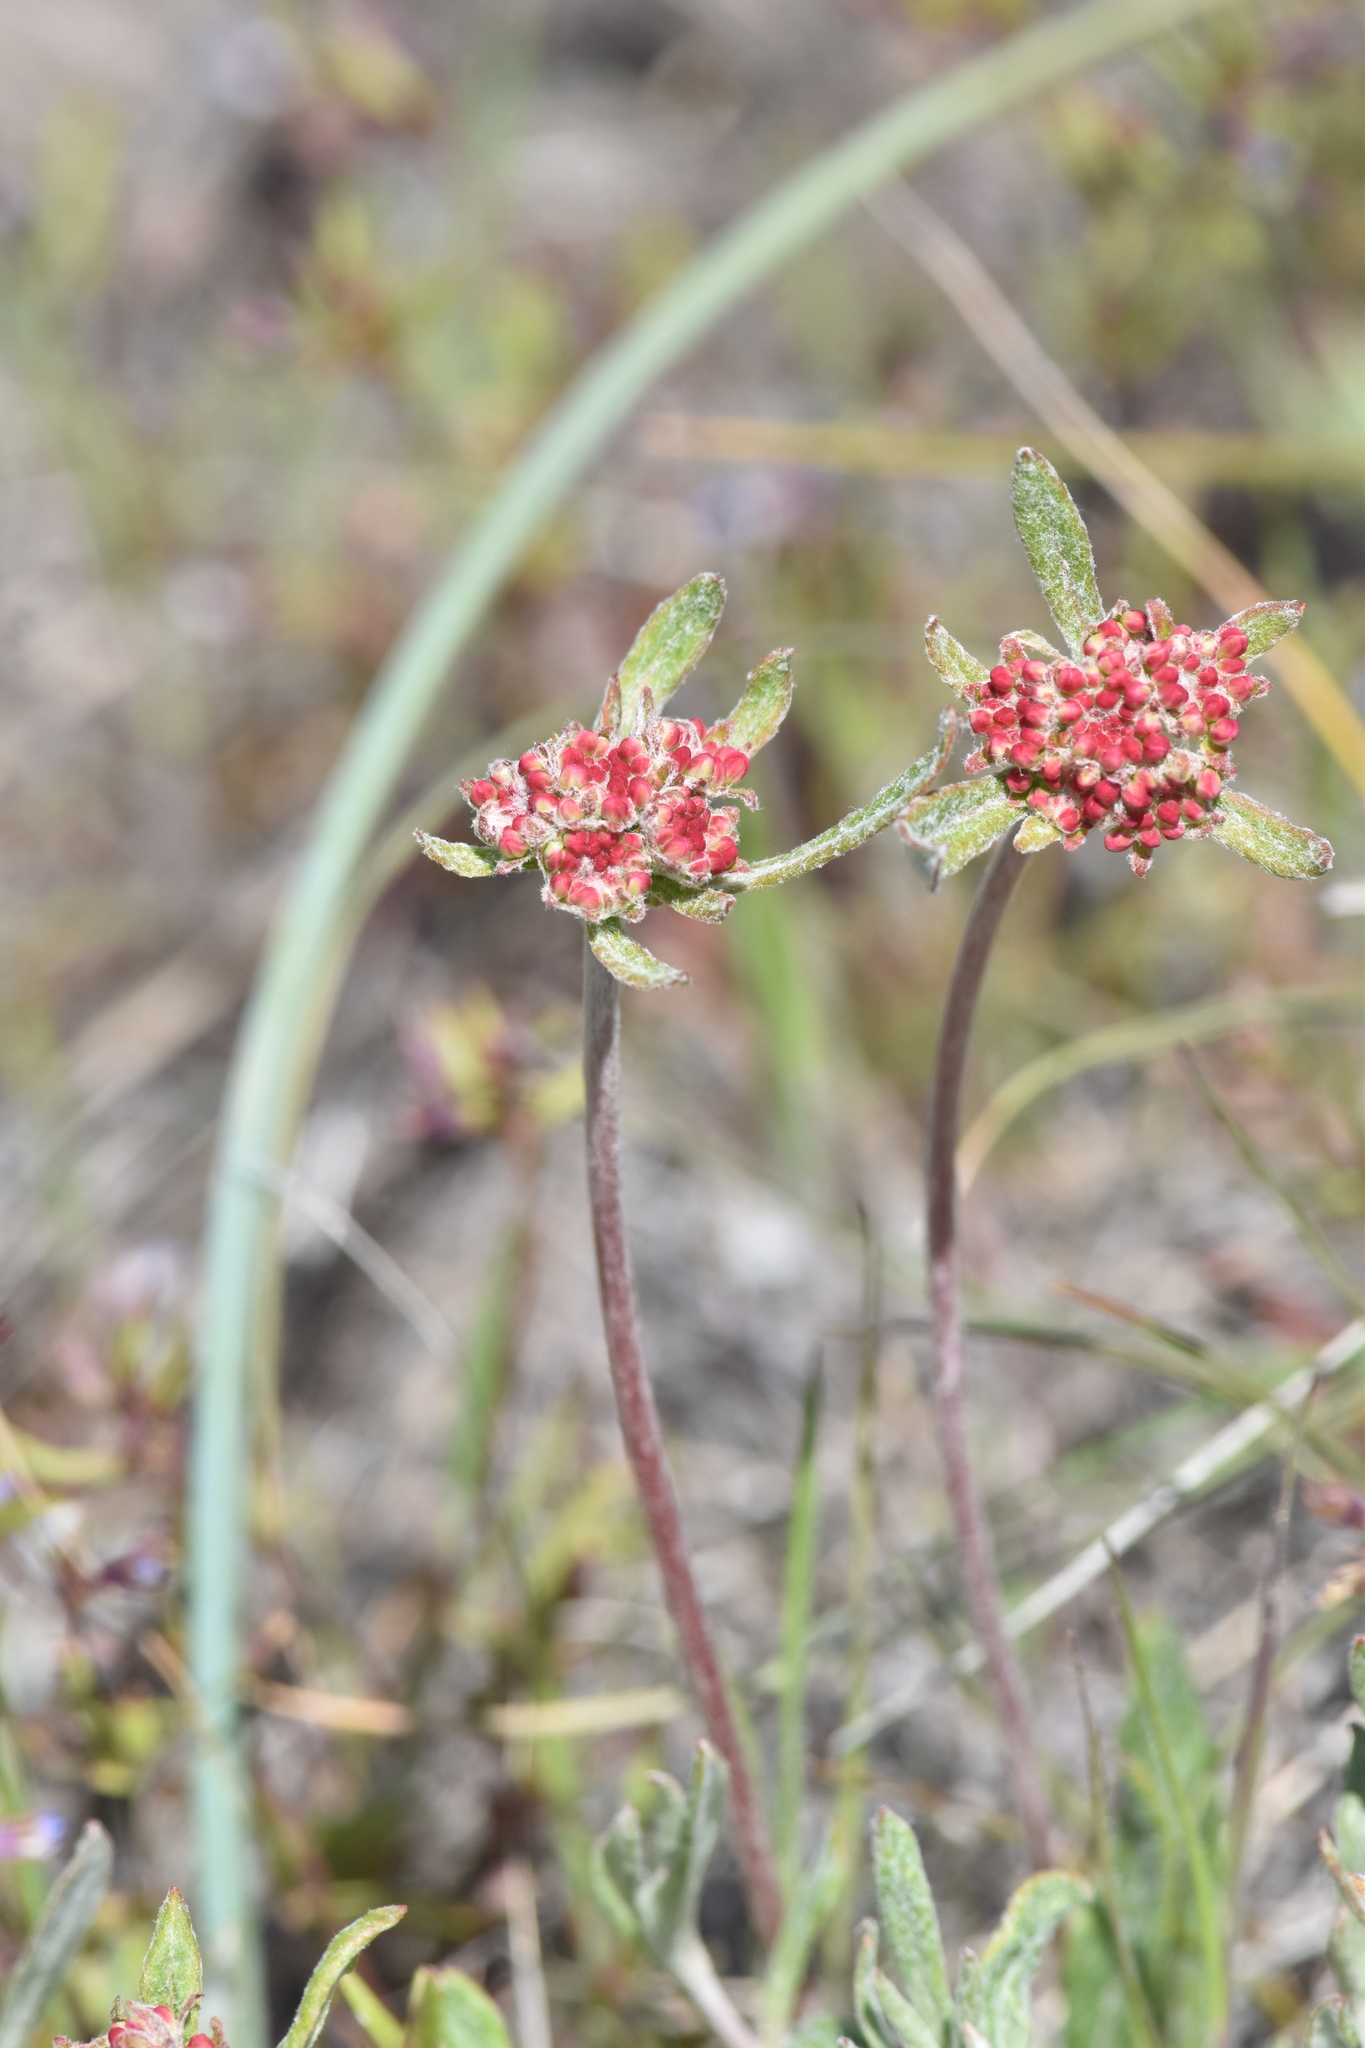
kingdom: Plantae
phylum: Tracheophyta
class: Magnoliopsida
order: Caryophyllales
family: Polygonaceae
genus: Eriogonum
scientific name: Eriogonum heracleoides
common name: Wyeth's buckwheat
